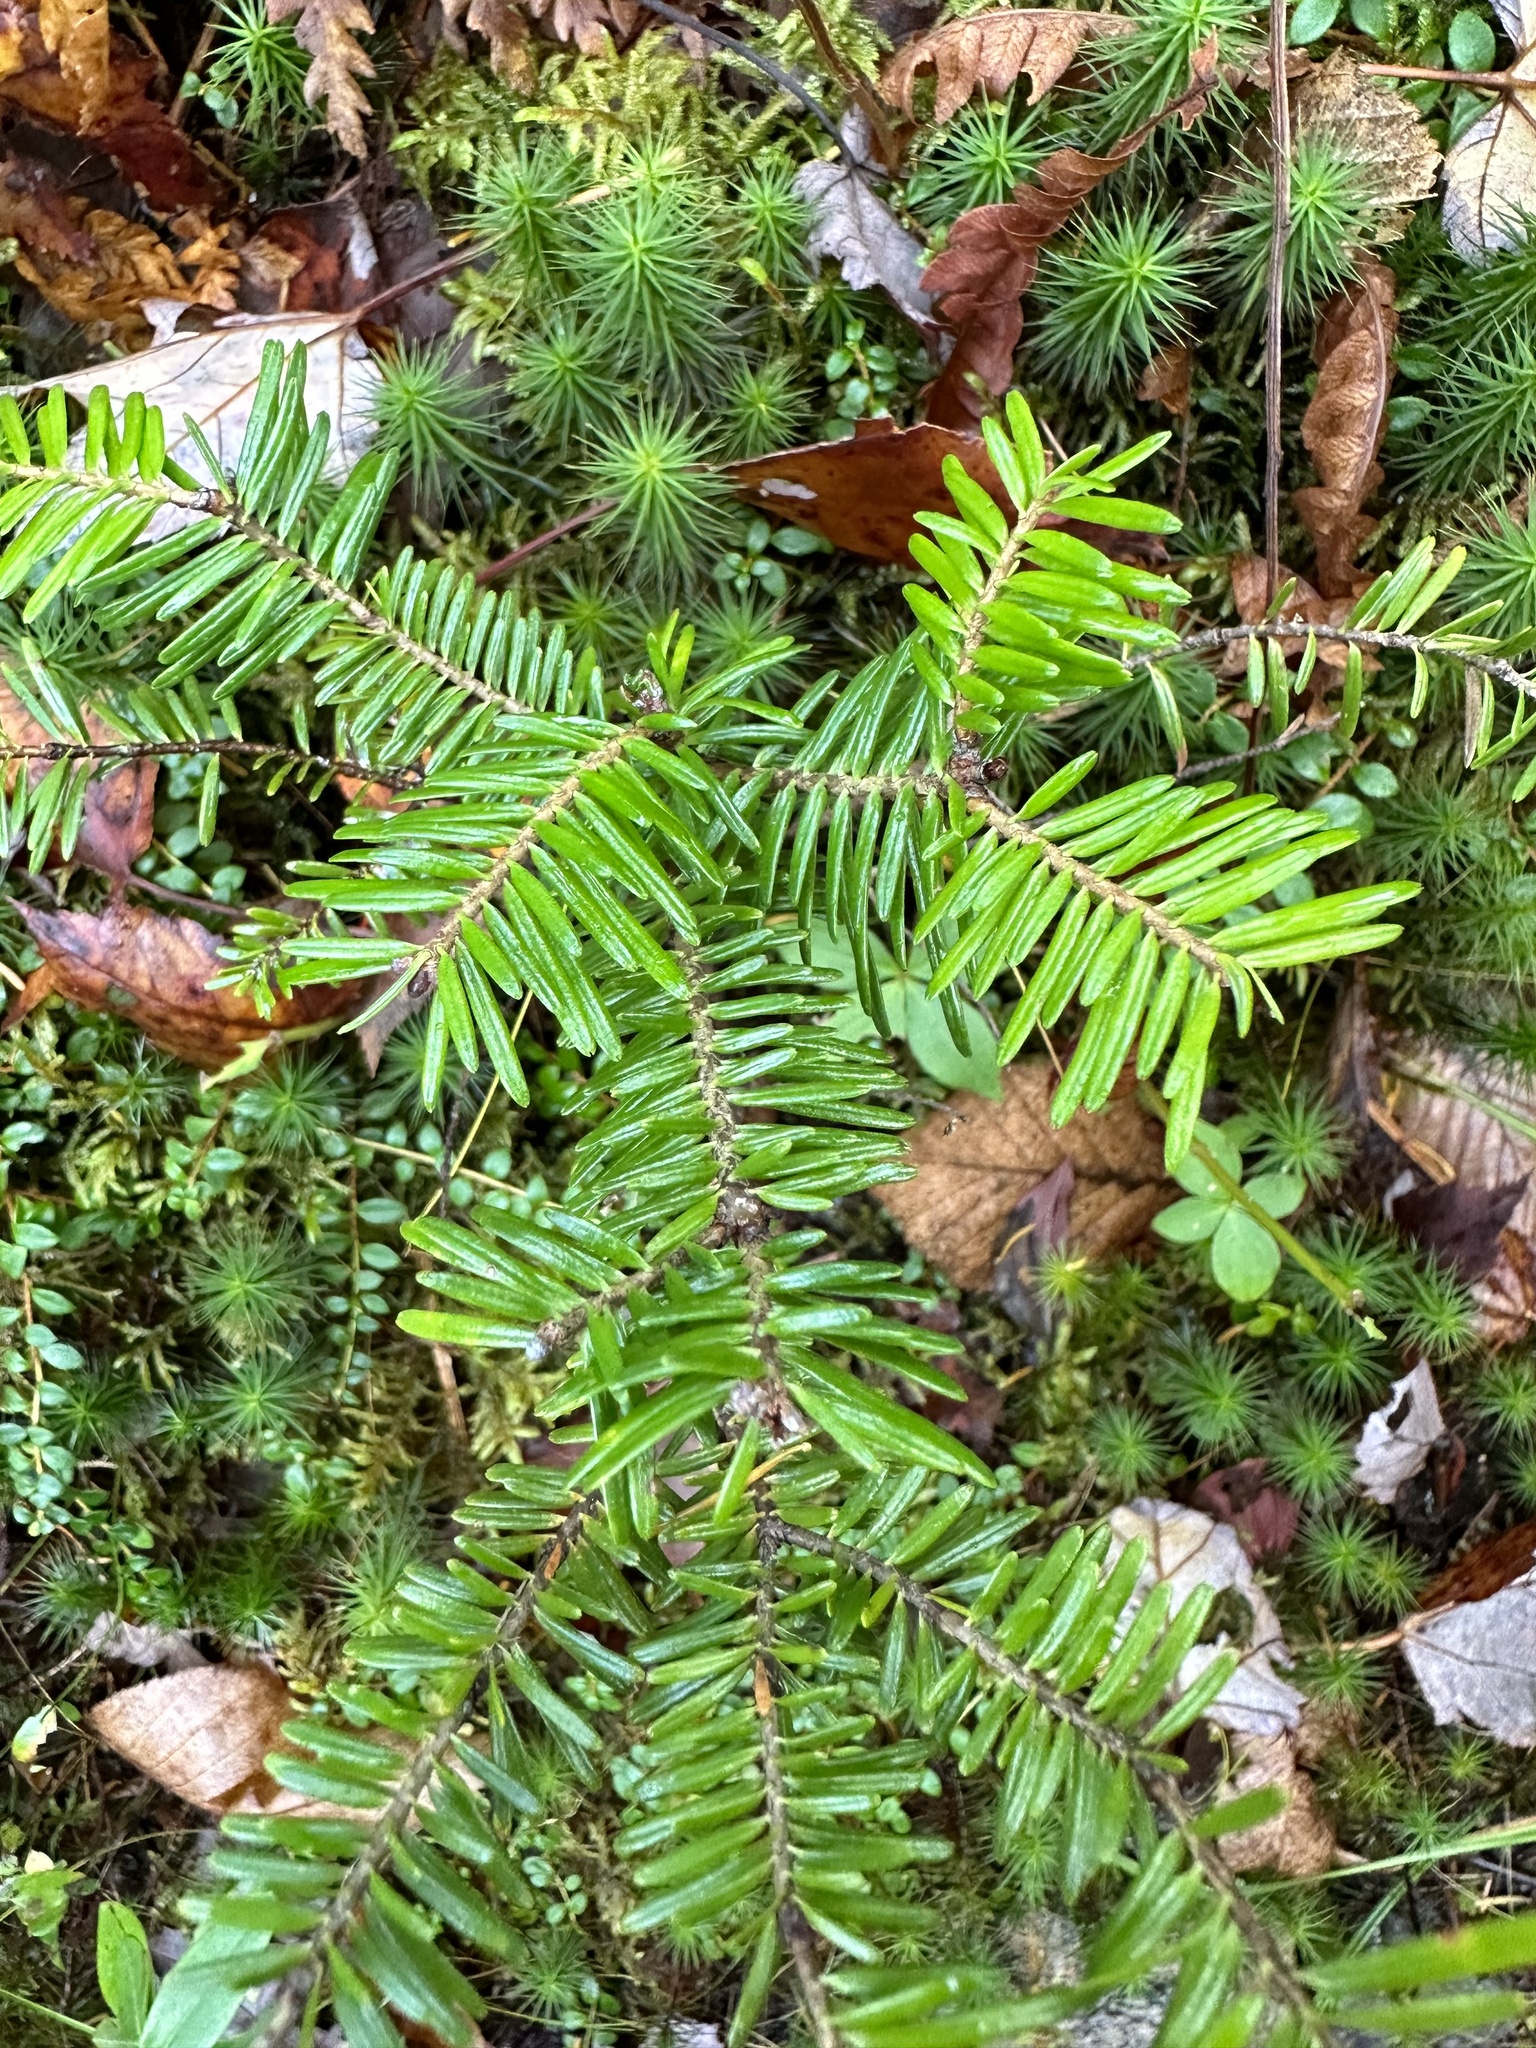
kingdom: Plantae
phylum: Tracheophyta
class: Pinopsida
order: Pinales
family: Pinaceae
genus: Abies
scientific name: Abies balsamea
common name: Balsam fir
